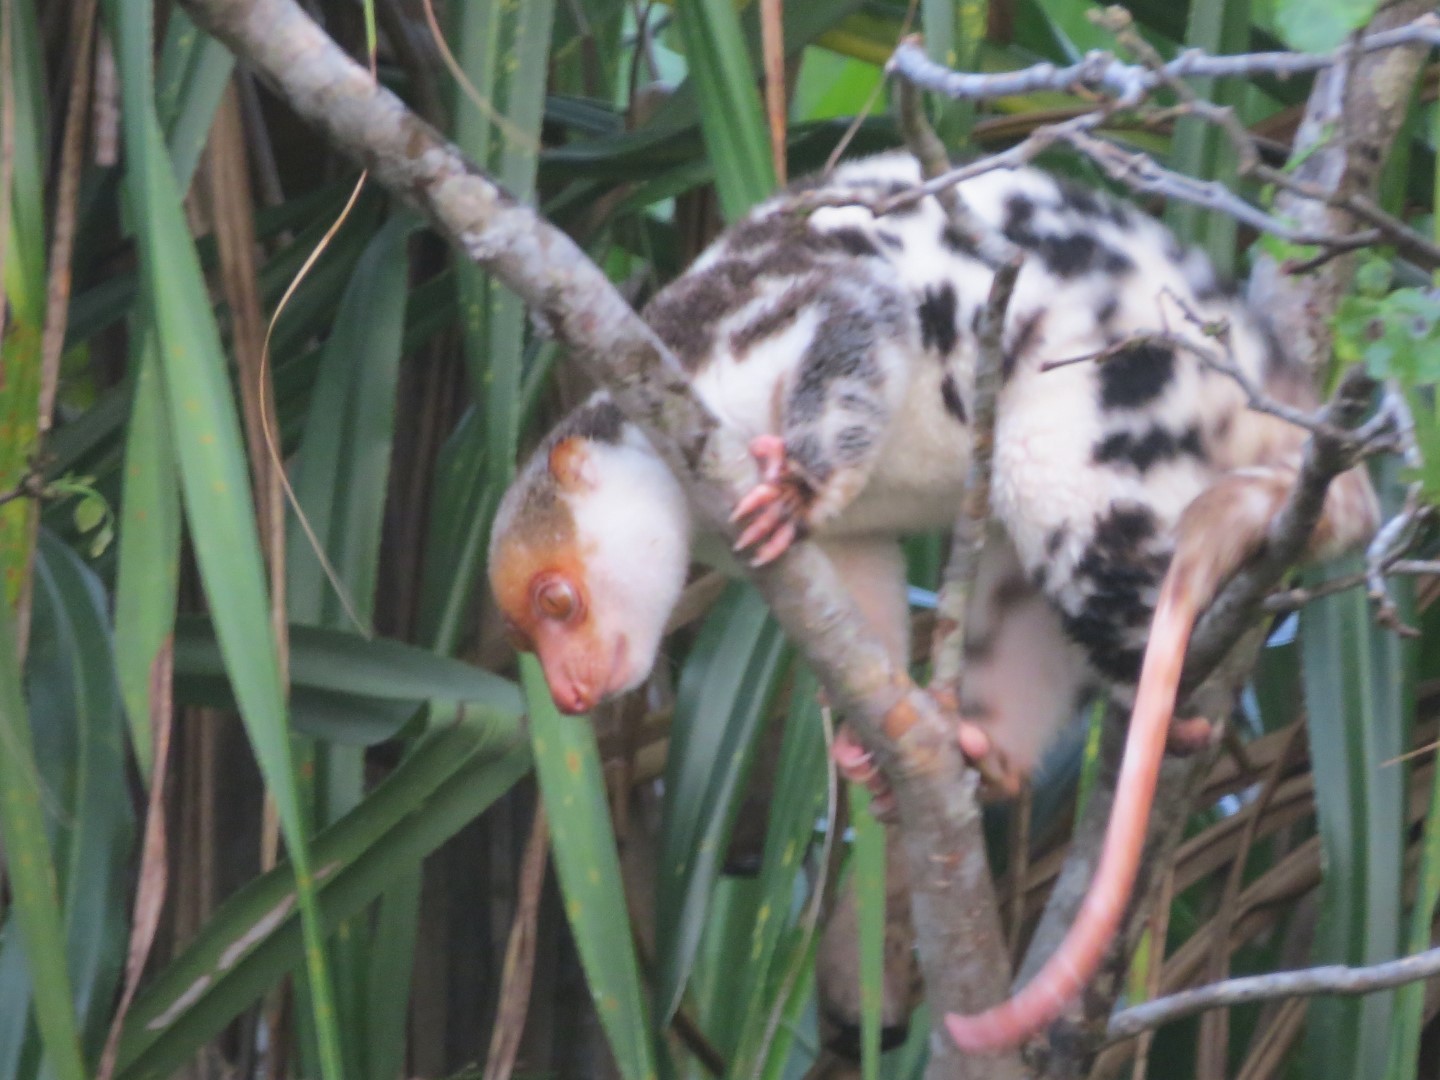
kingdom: Animalia
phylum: Chordata
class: Mammalia
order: Diprotodontia
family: Phalangeridae
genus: Spilocuscus
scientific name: Spilocuscus papuensis
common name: Waigeou cuscus
